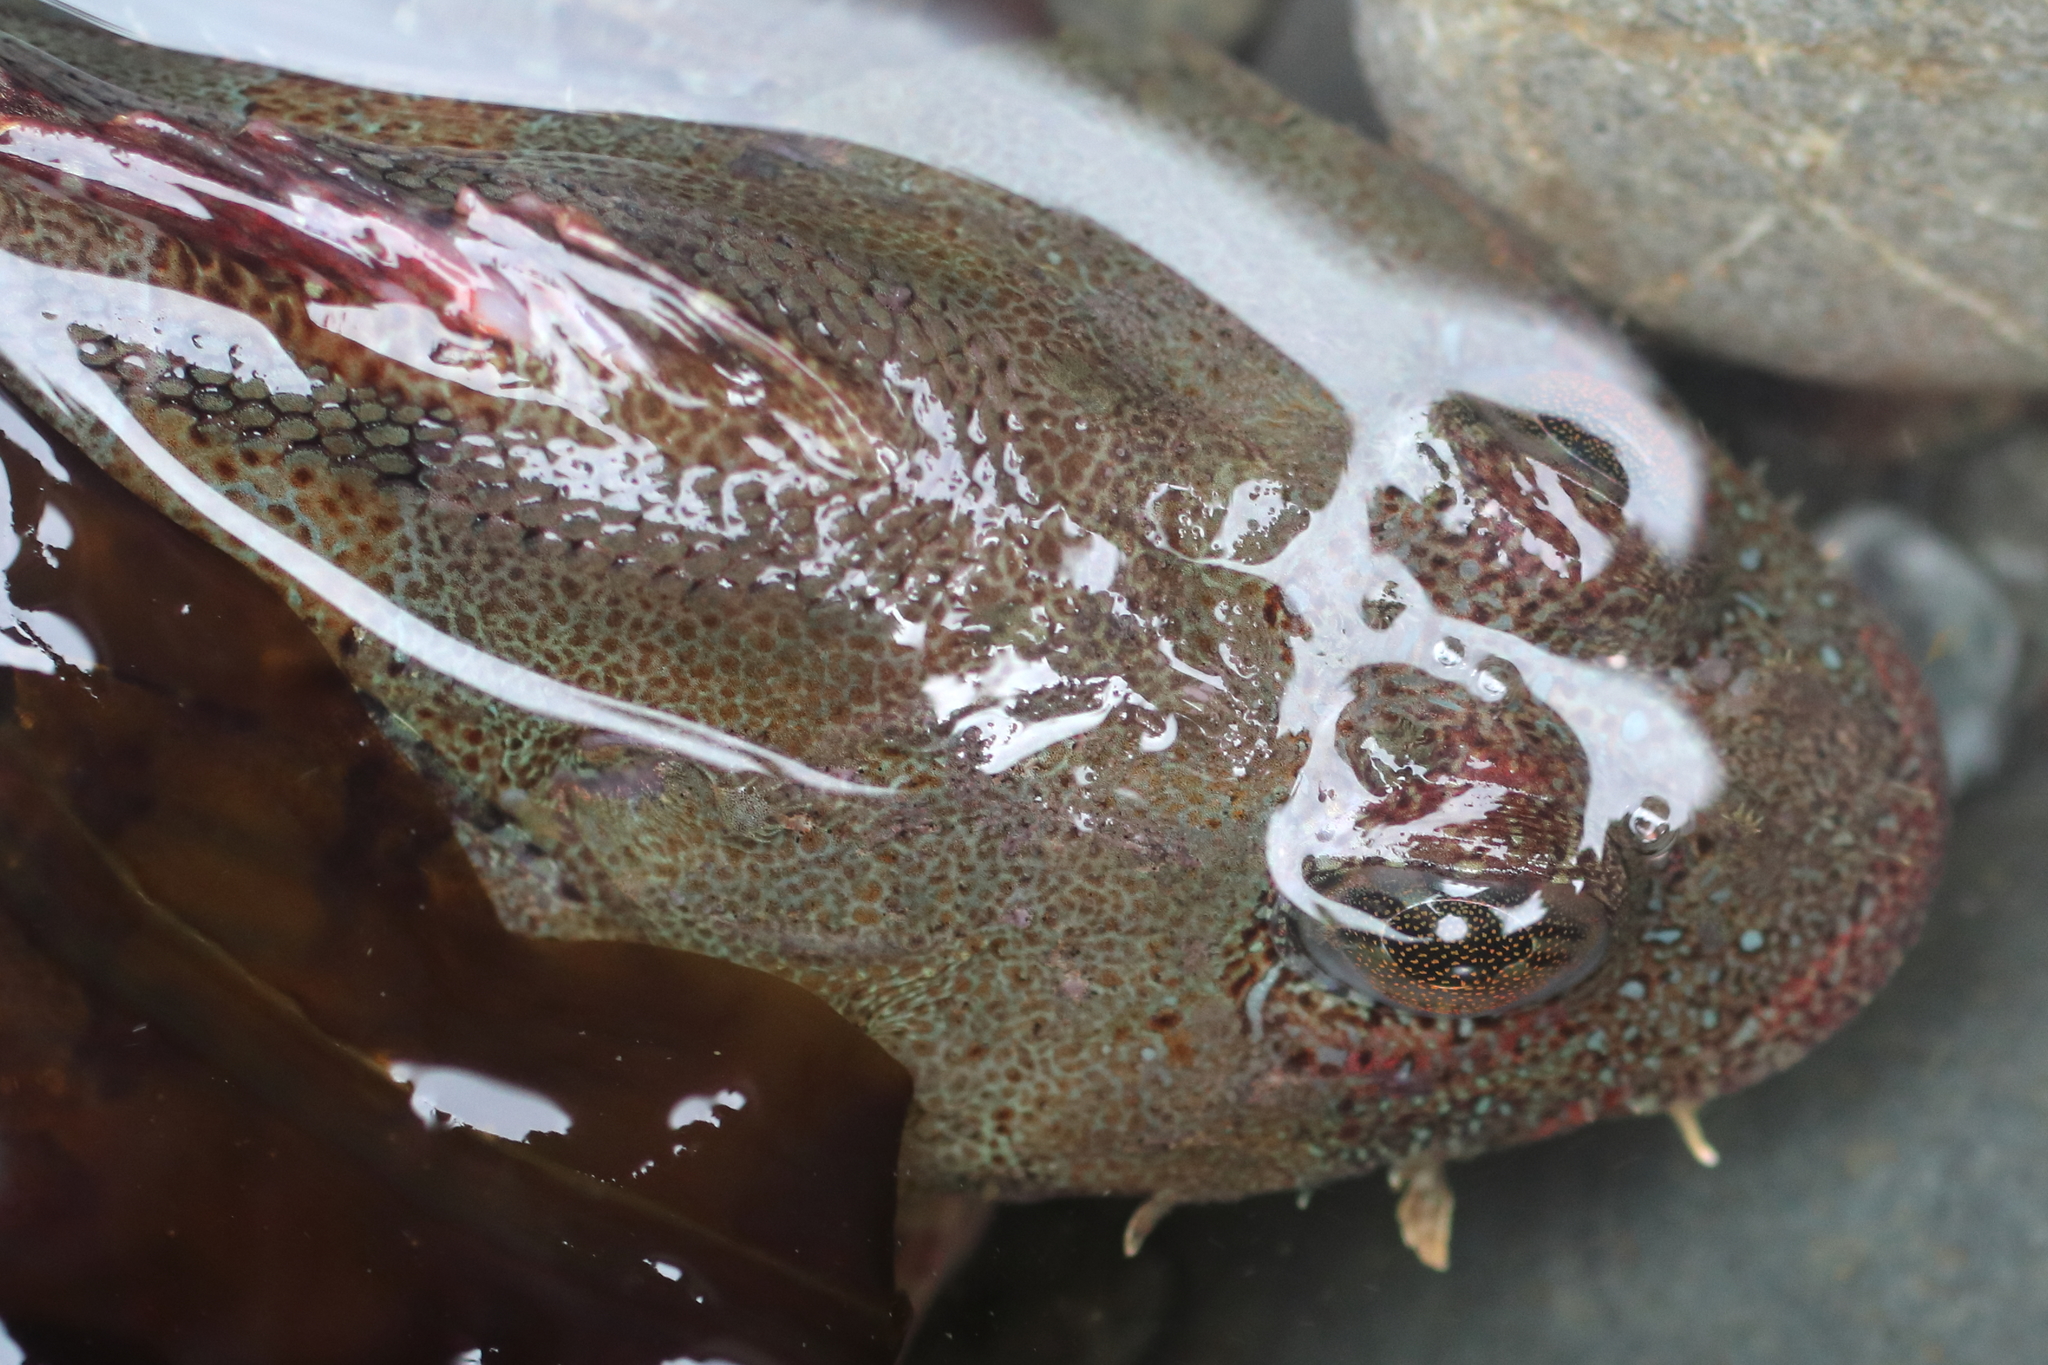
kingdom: Animalia
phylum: Chordata
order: Scorpaeniformes
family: Cottidae
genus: Hemilepidotus
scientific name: Hemilepidotus hemilepidotus
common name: Red irish lord
